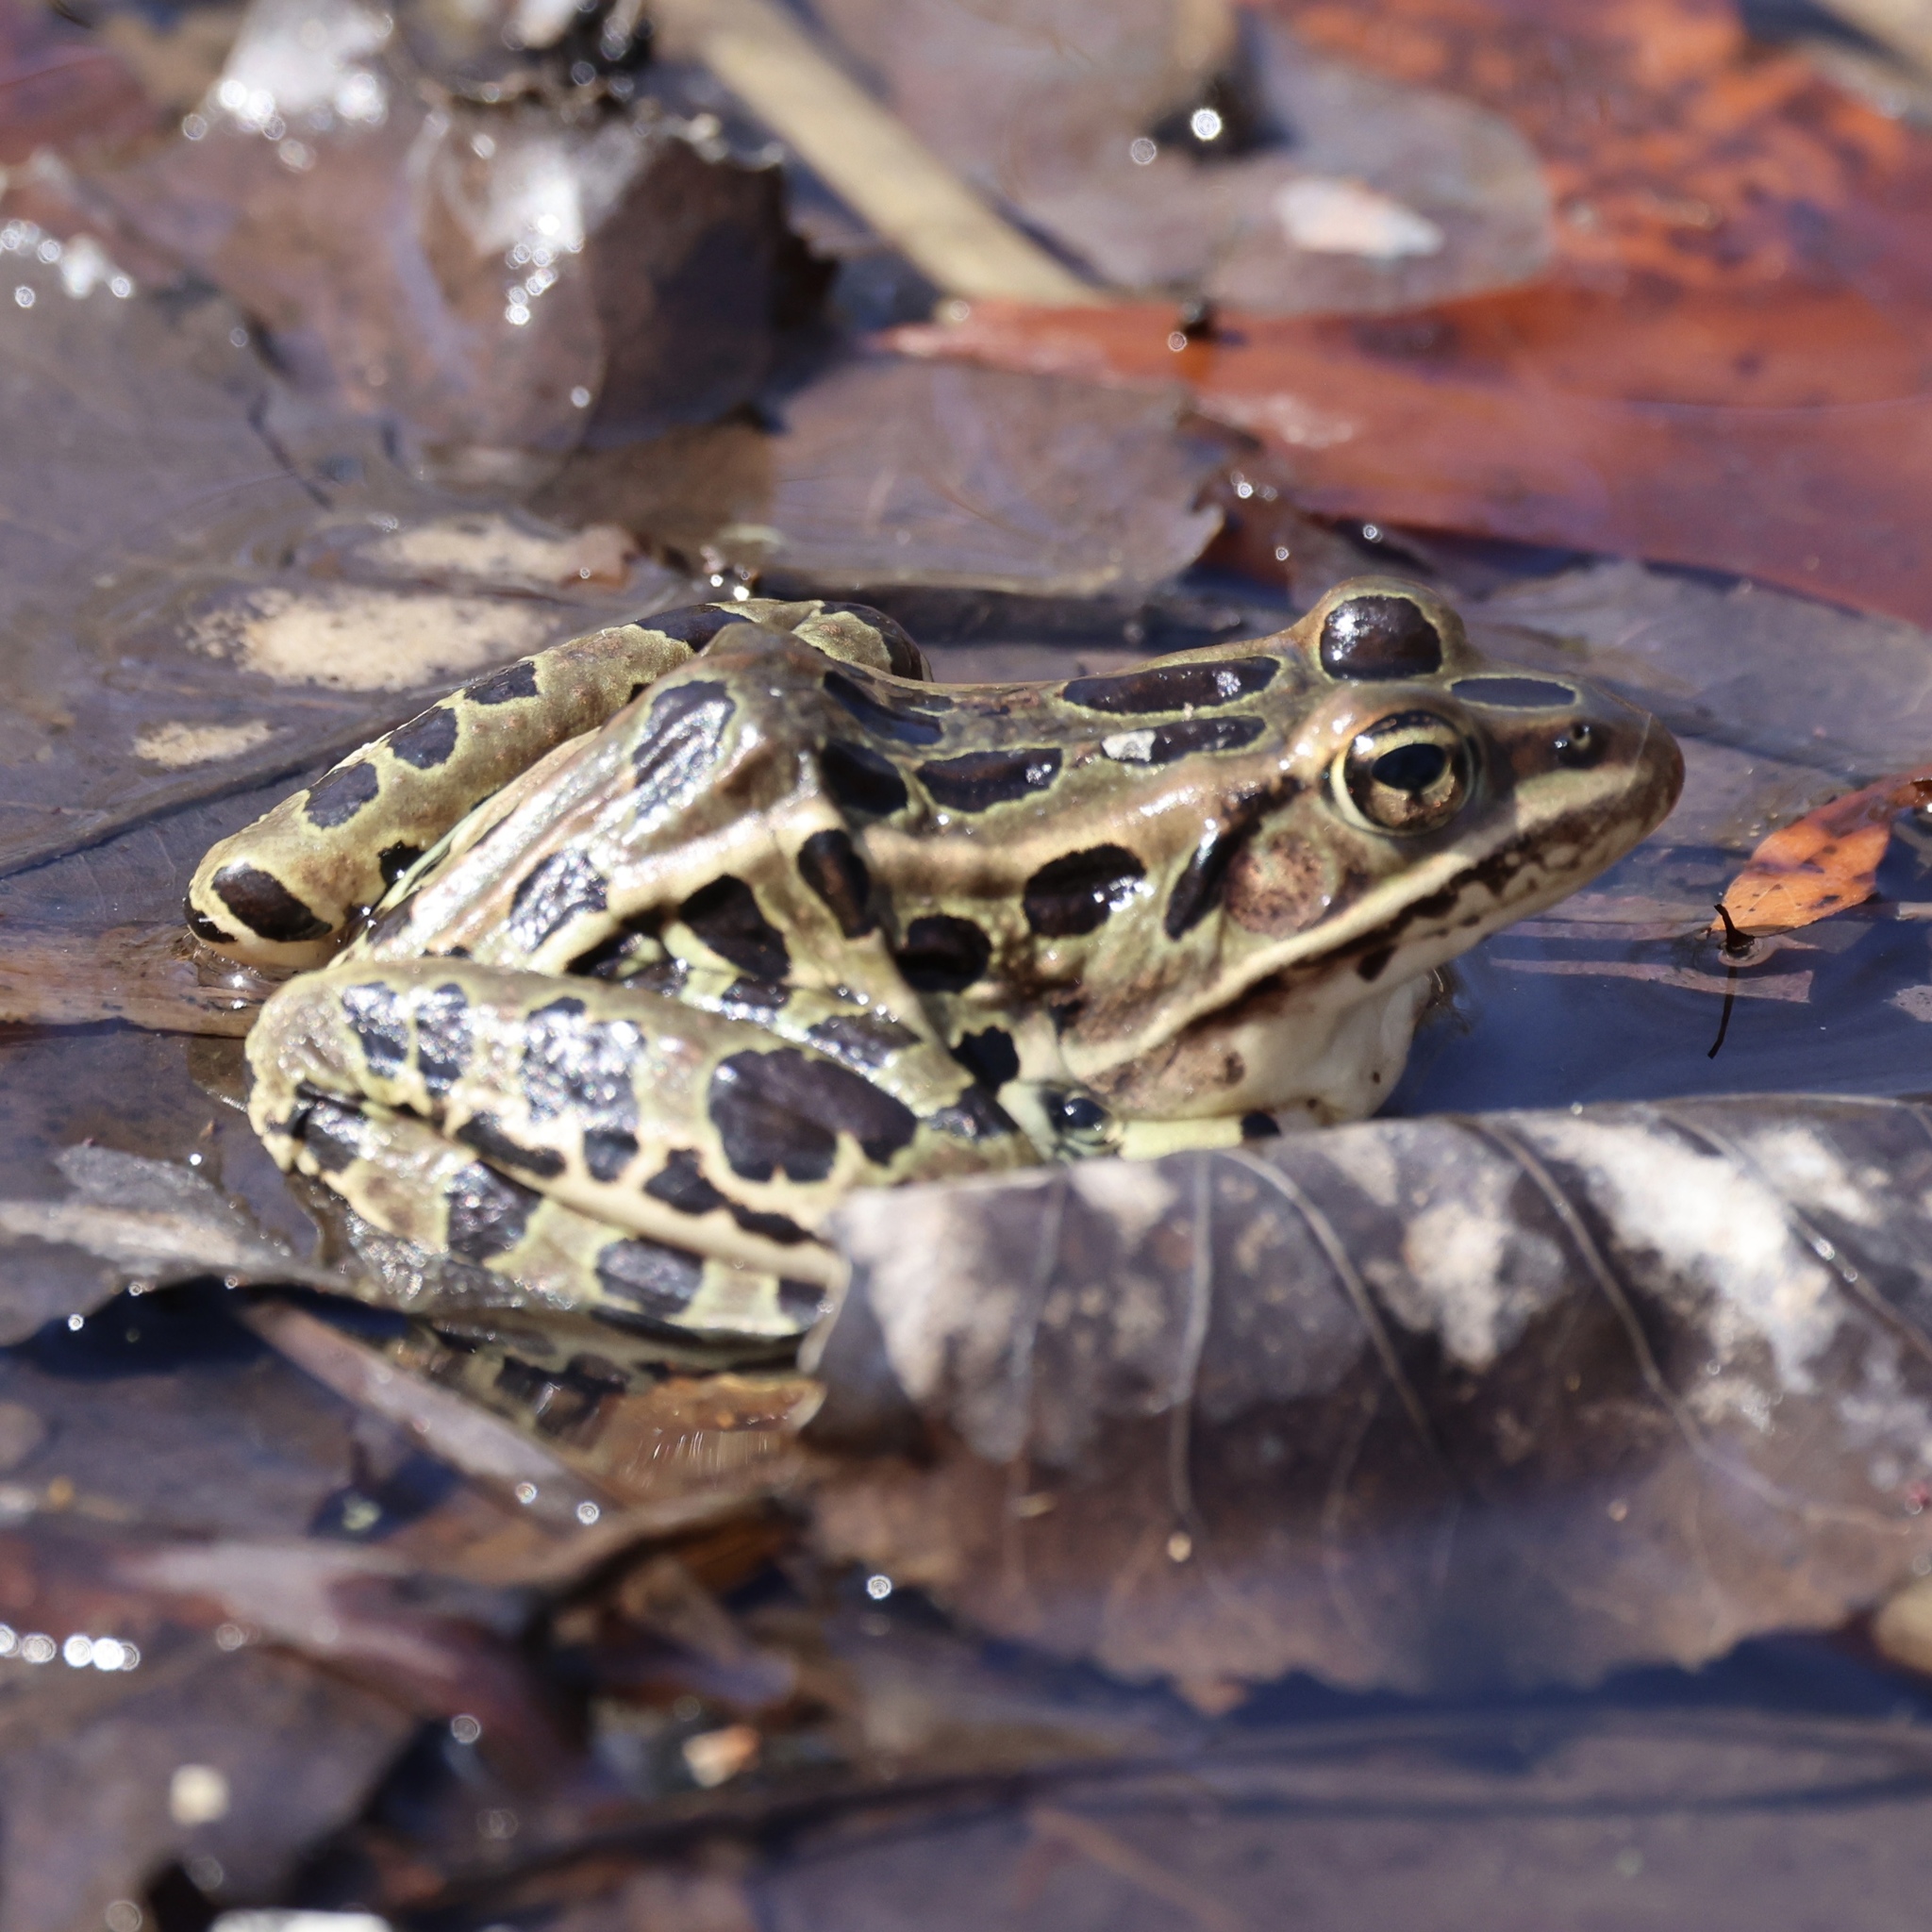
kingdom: Animalia
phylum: Chordata
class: Amphibia
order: Anura
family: Ranidae
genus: Lithobates
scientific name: Lithobates pipiens
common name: Northern leopard frog
